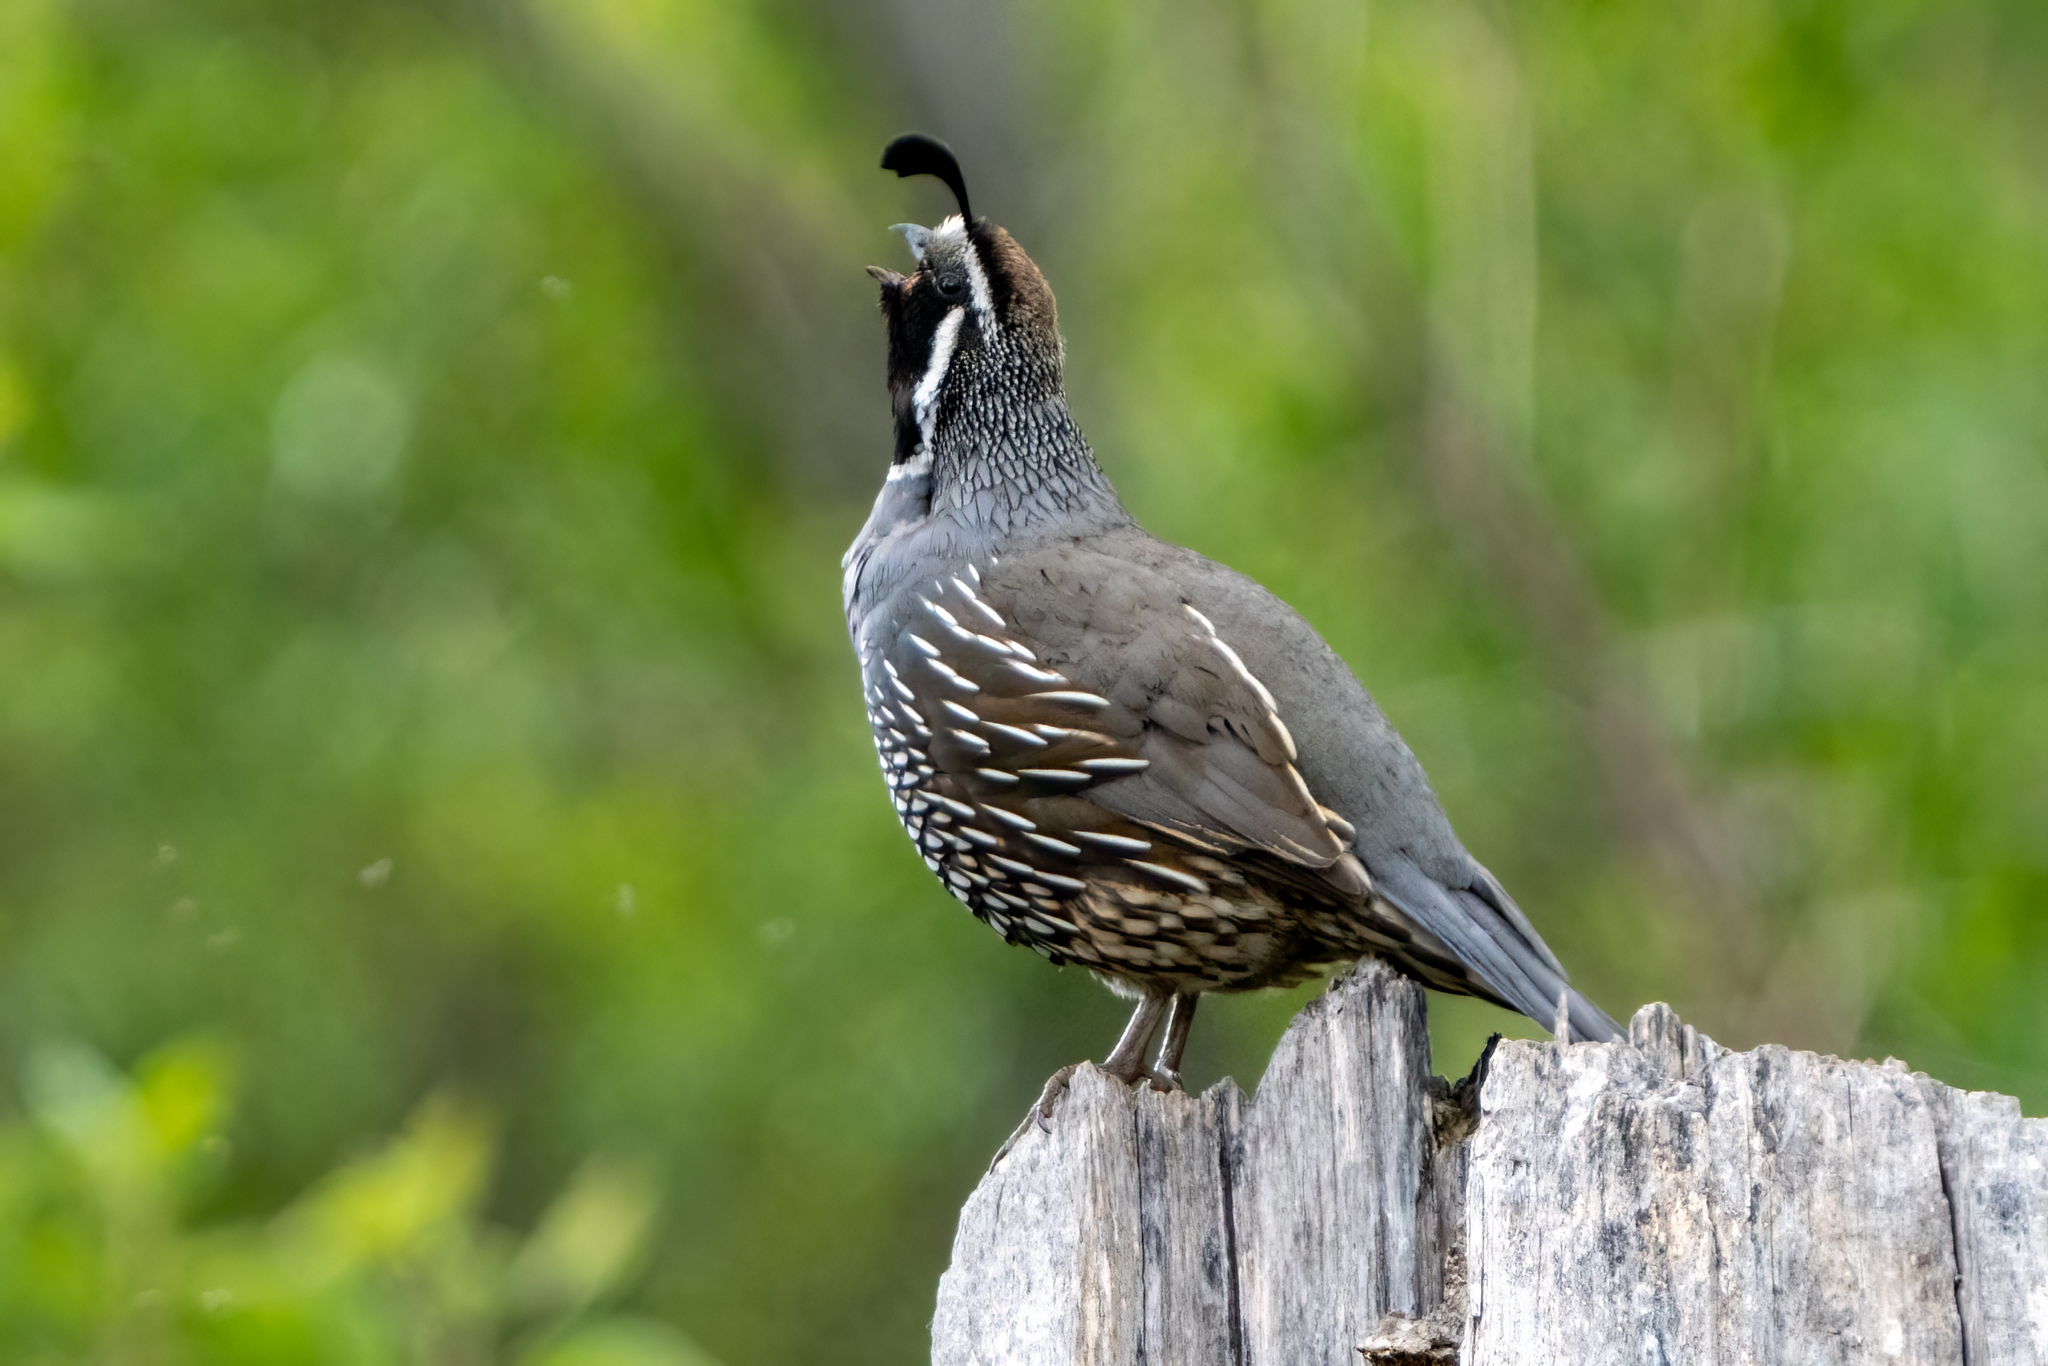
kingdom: Animalia
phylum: Chordata
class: Aves
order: Galliformes
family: Odontophoridae
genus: Callipepla
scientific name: Callipepla californica
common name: California quail
